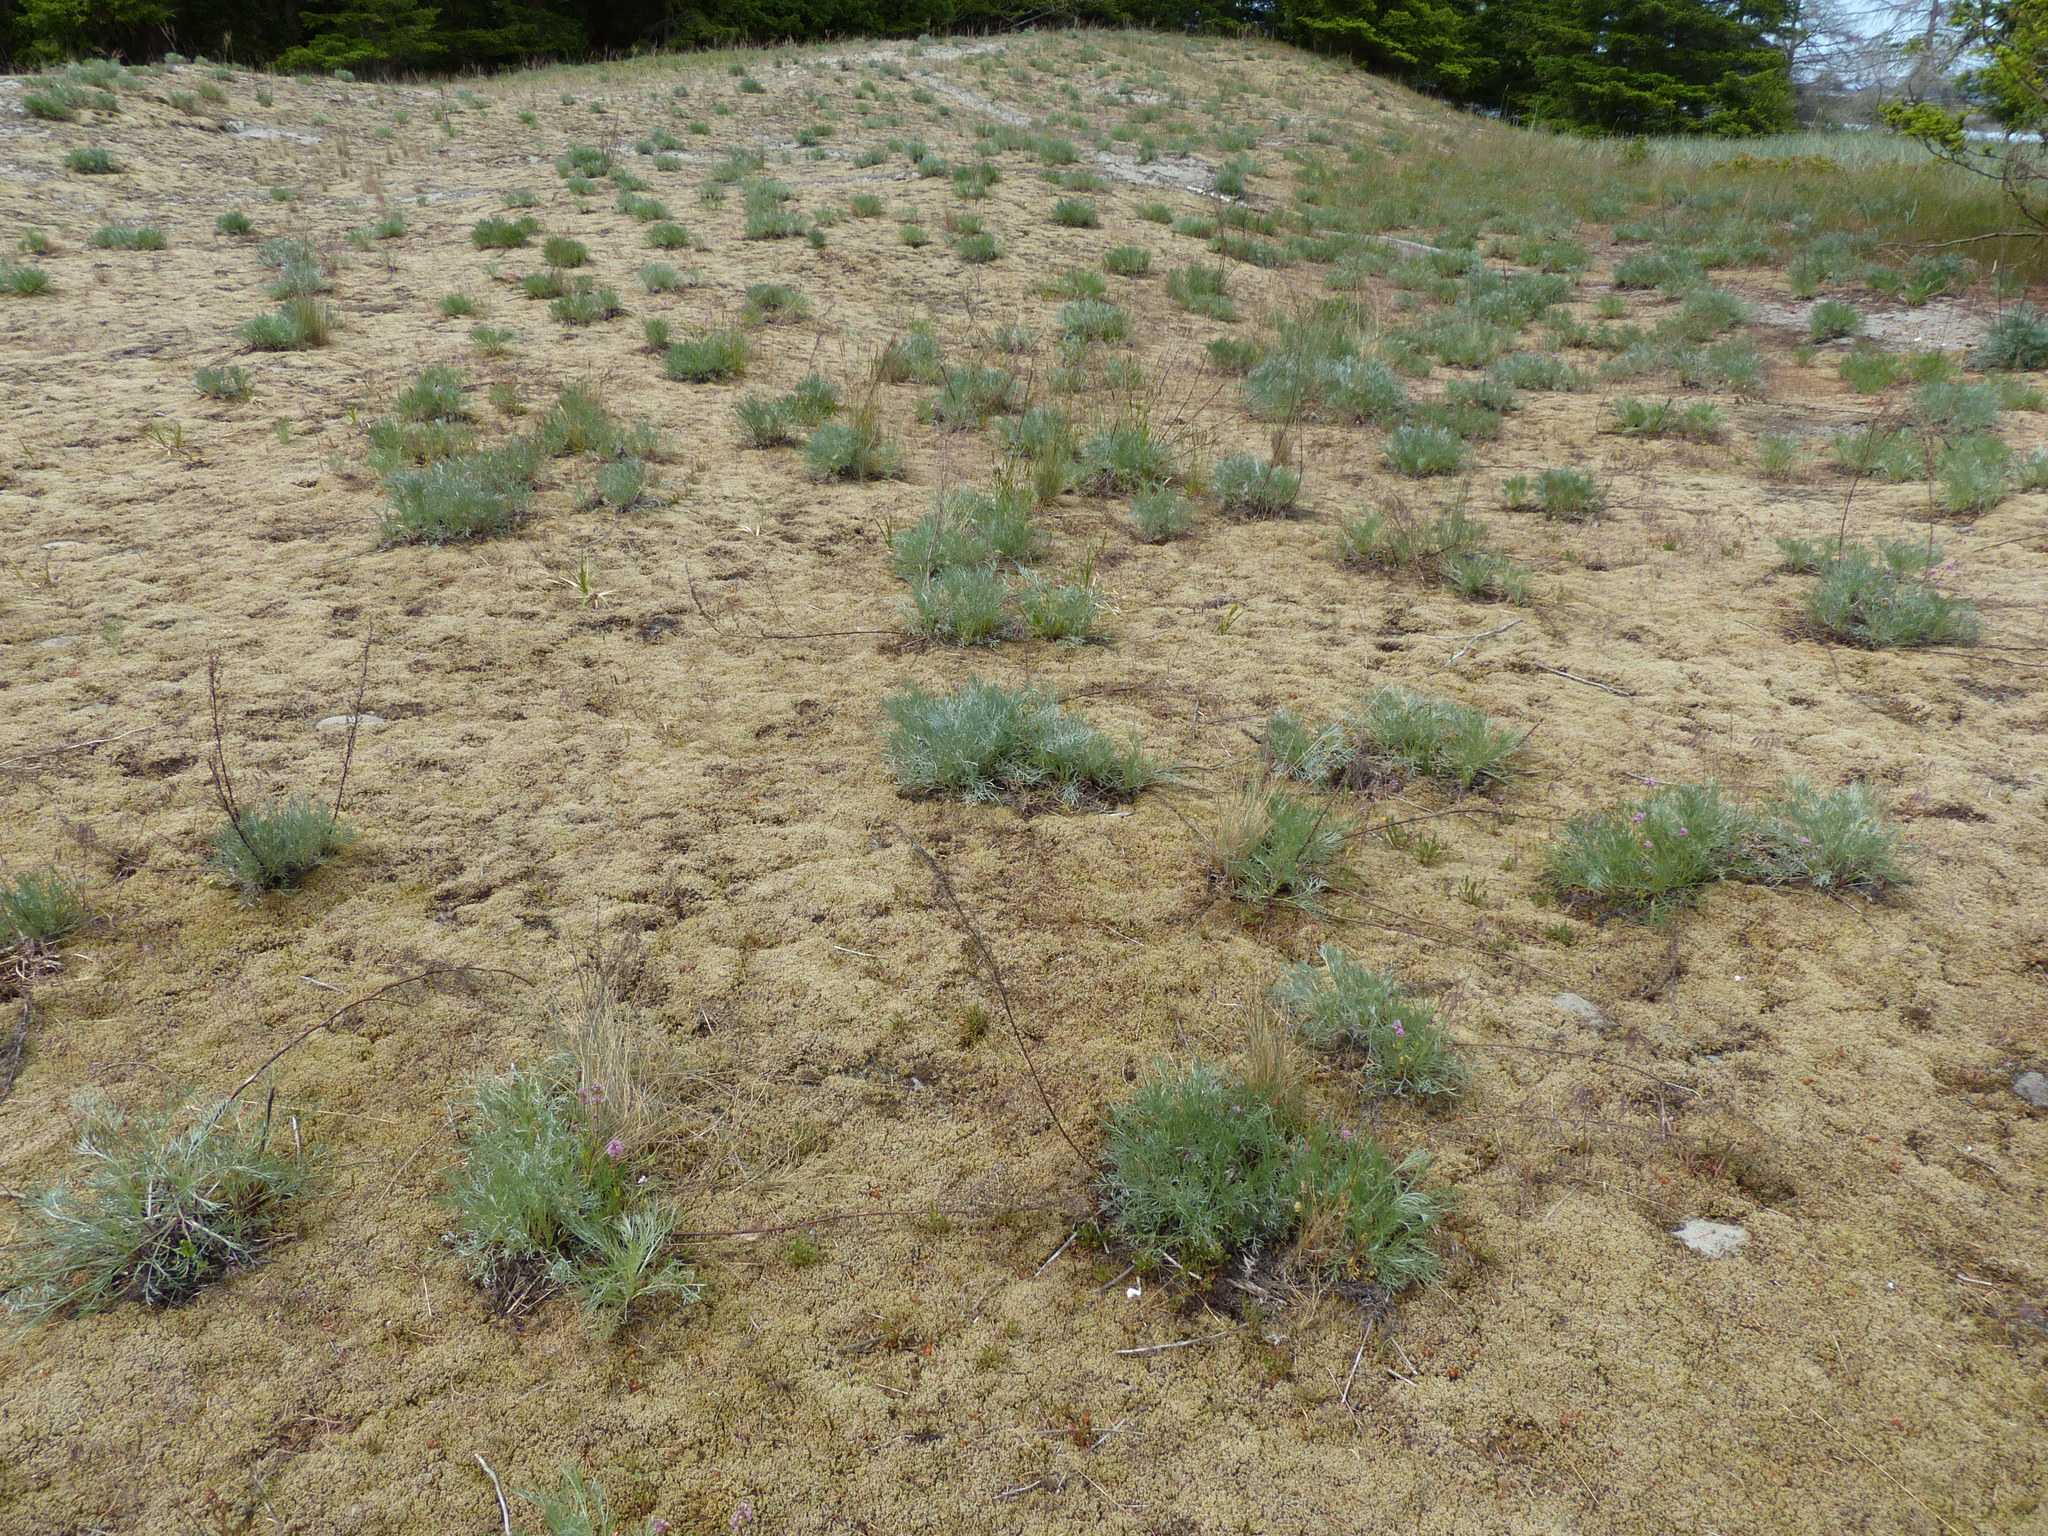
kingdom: Plantae
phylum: Tracheophyta
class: Magnoliopsida
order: Asterales
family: Asteraceae
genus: Artemisia
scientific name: Artemisia campestris
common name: Field wormwood
